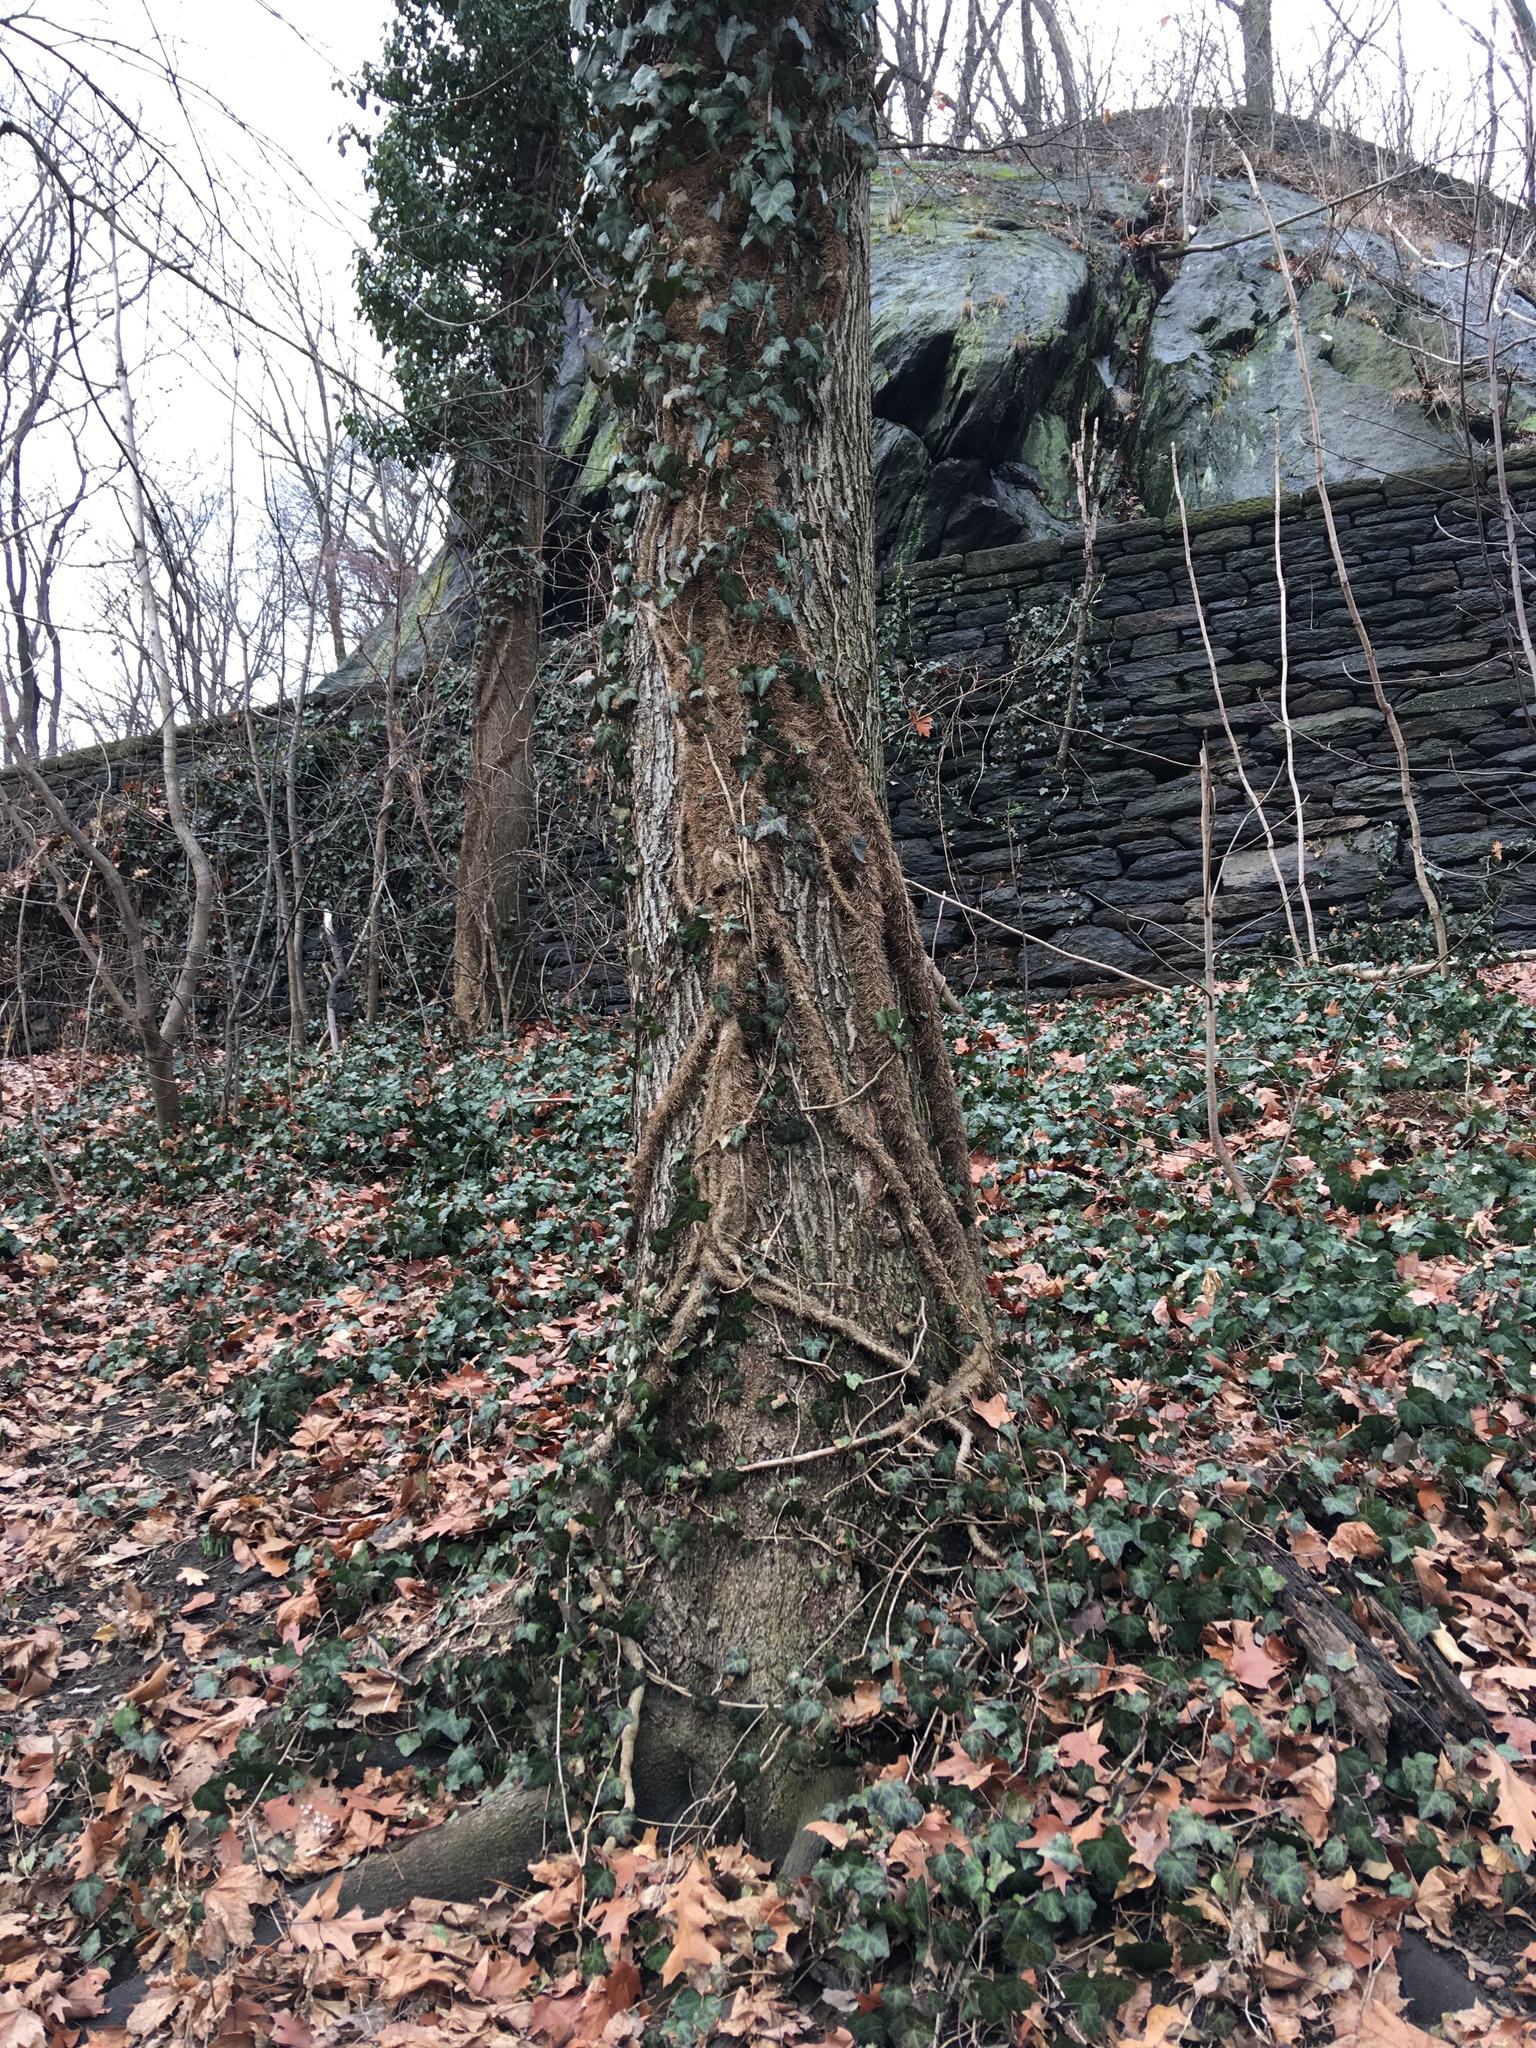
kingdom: Plantae
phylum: Tracheophyta
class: Magnoliopsida
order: Apiales
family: Araliaceae
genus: Hedera
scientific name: Hedera helix
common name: Ivy
